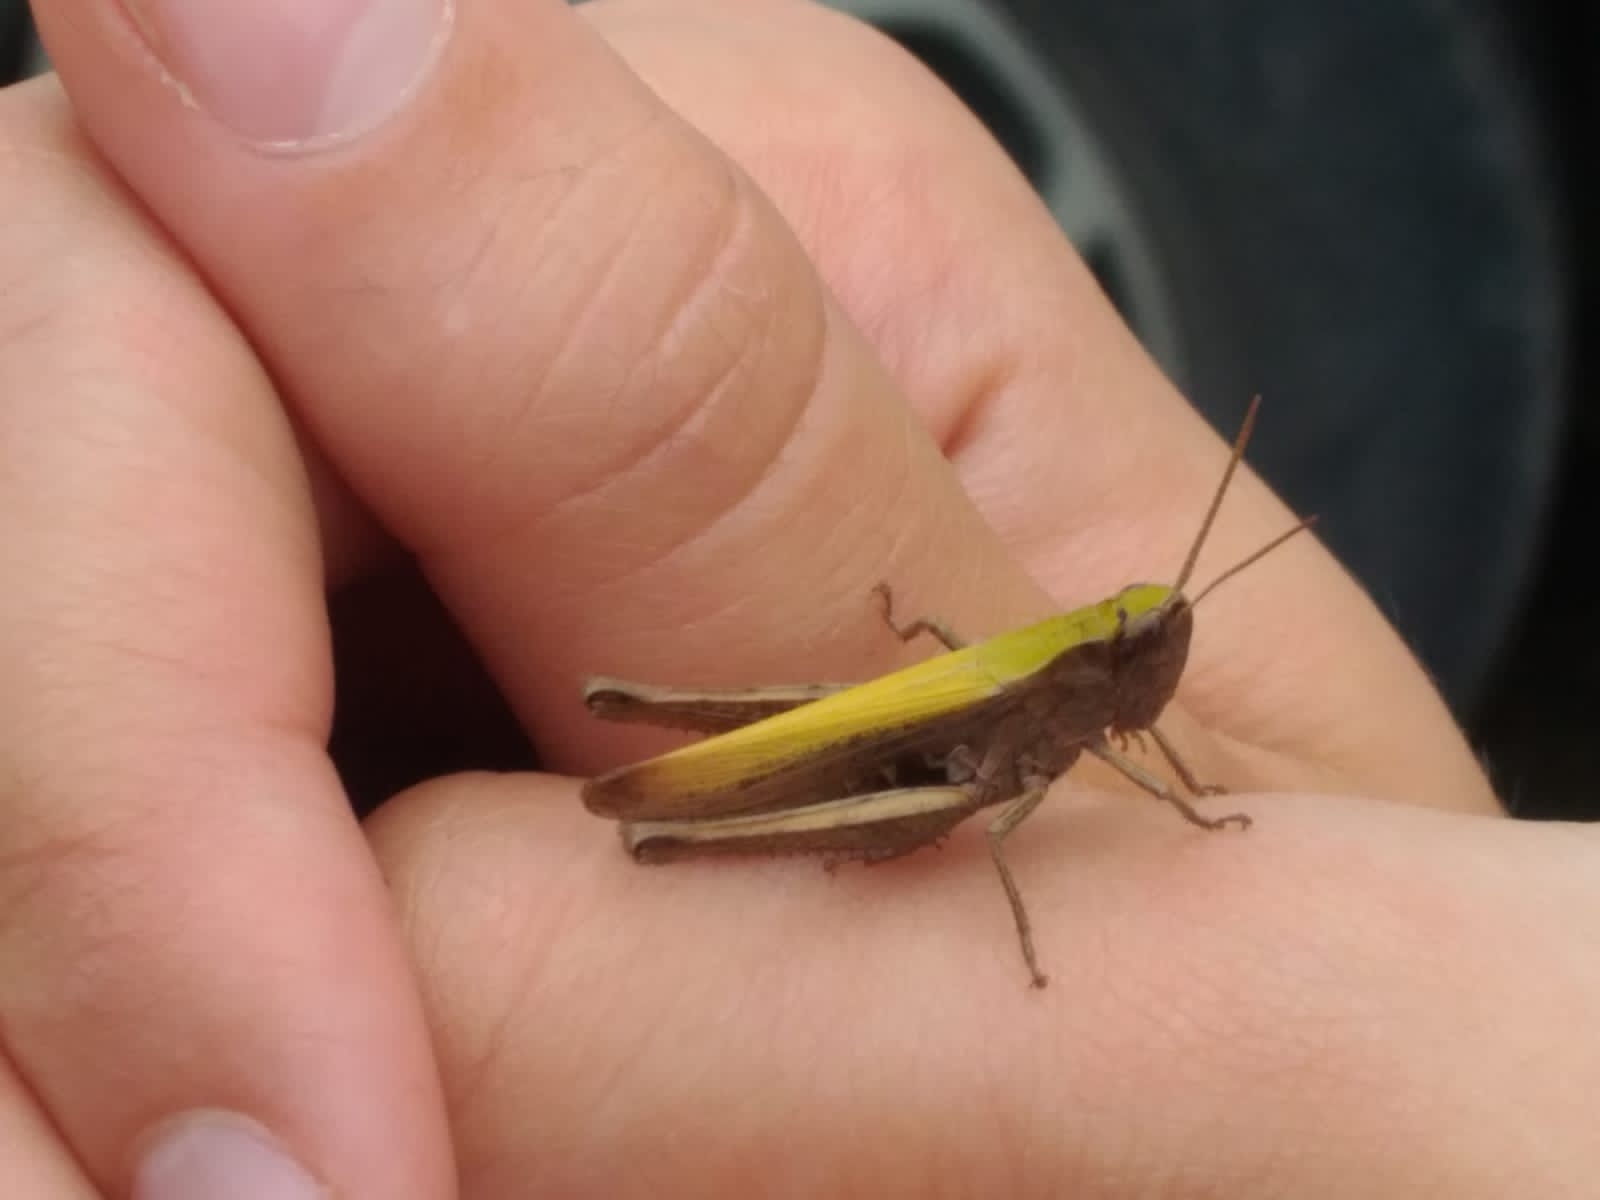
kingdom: Animalia
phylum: Arthropoda
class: Insecta
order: Orthoptera
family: Acrididae
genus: Chorthippus
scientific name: Chorthippus dorsatus
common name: Steppe grasshopper
